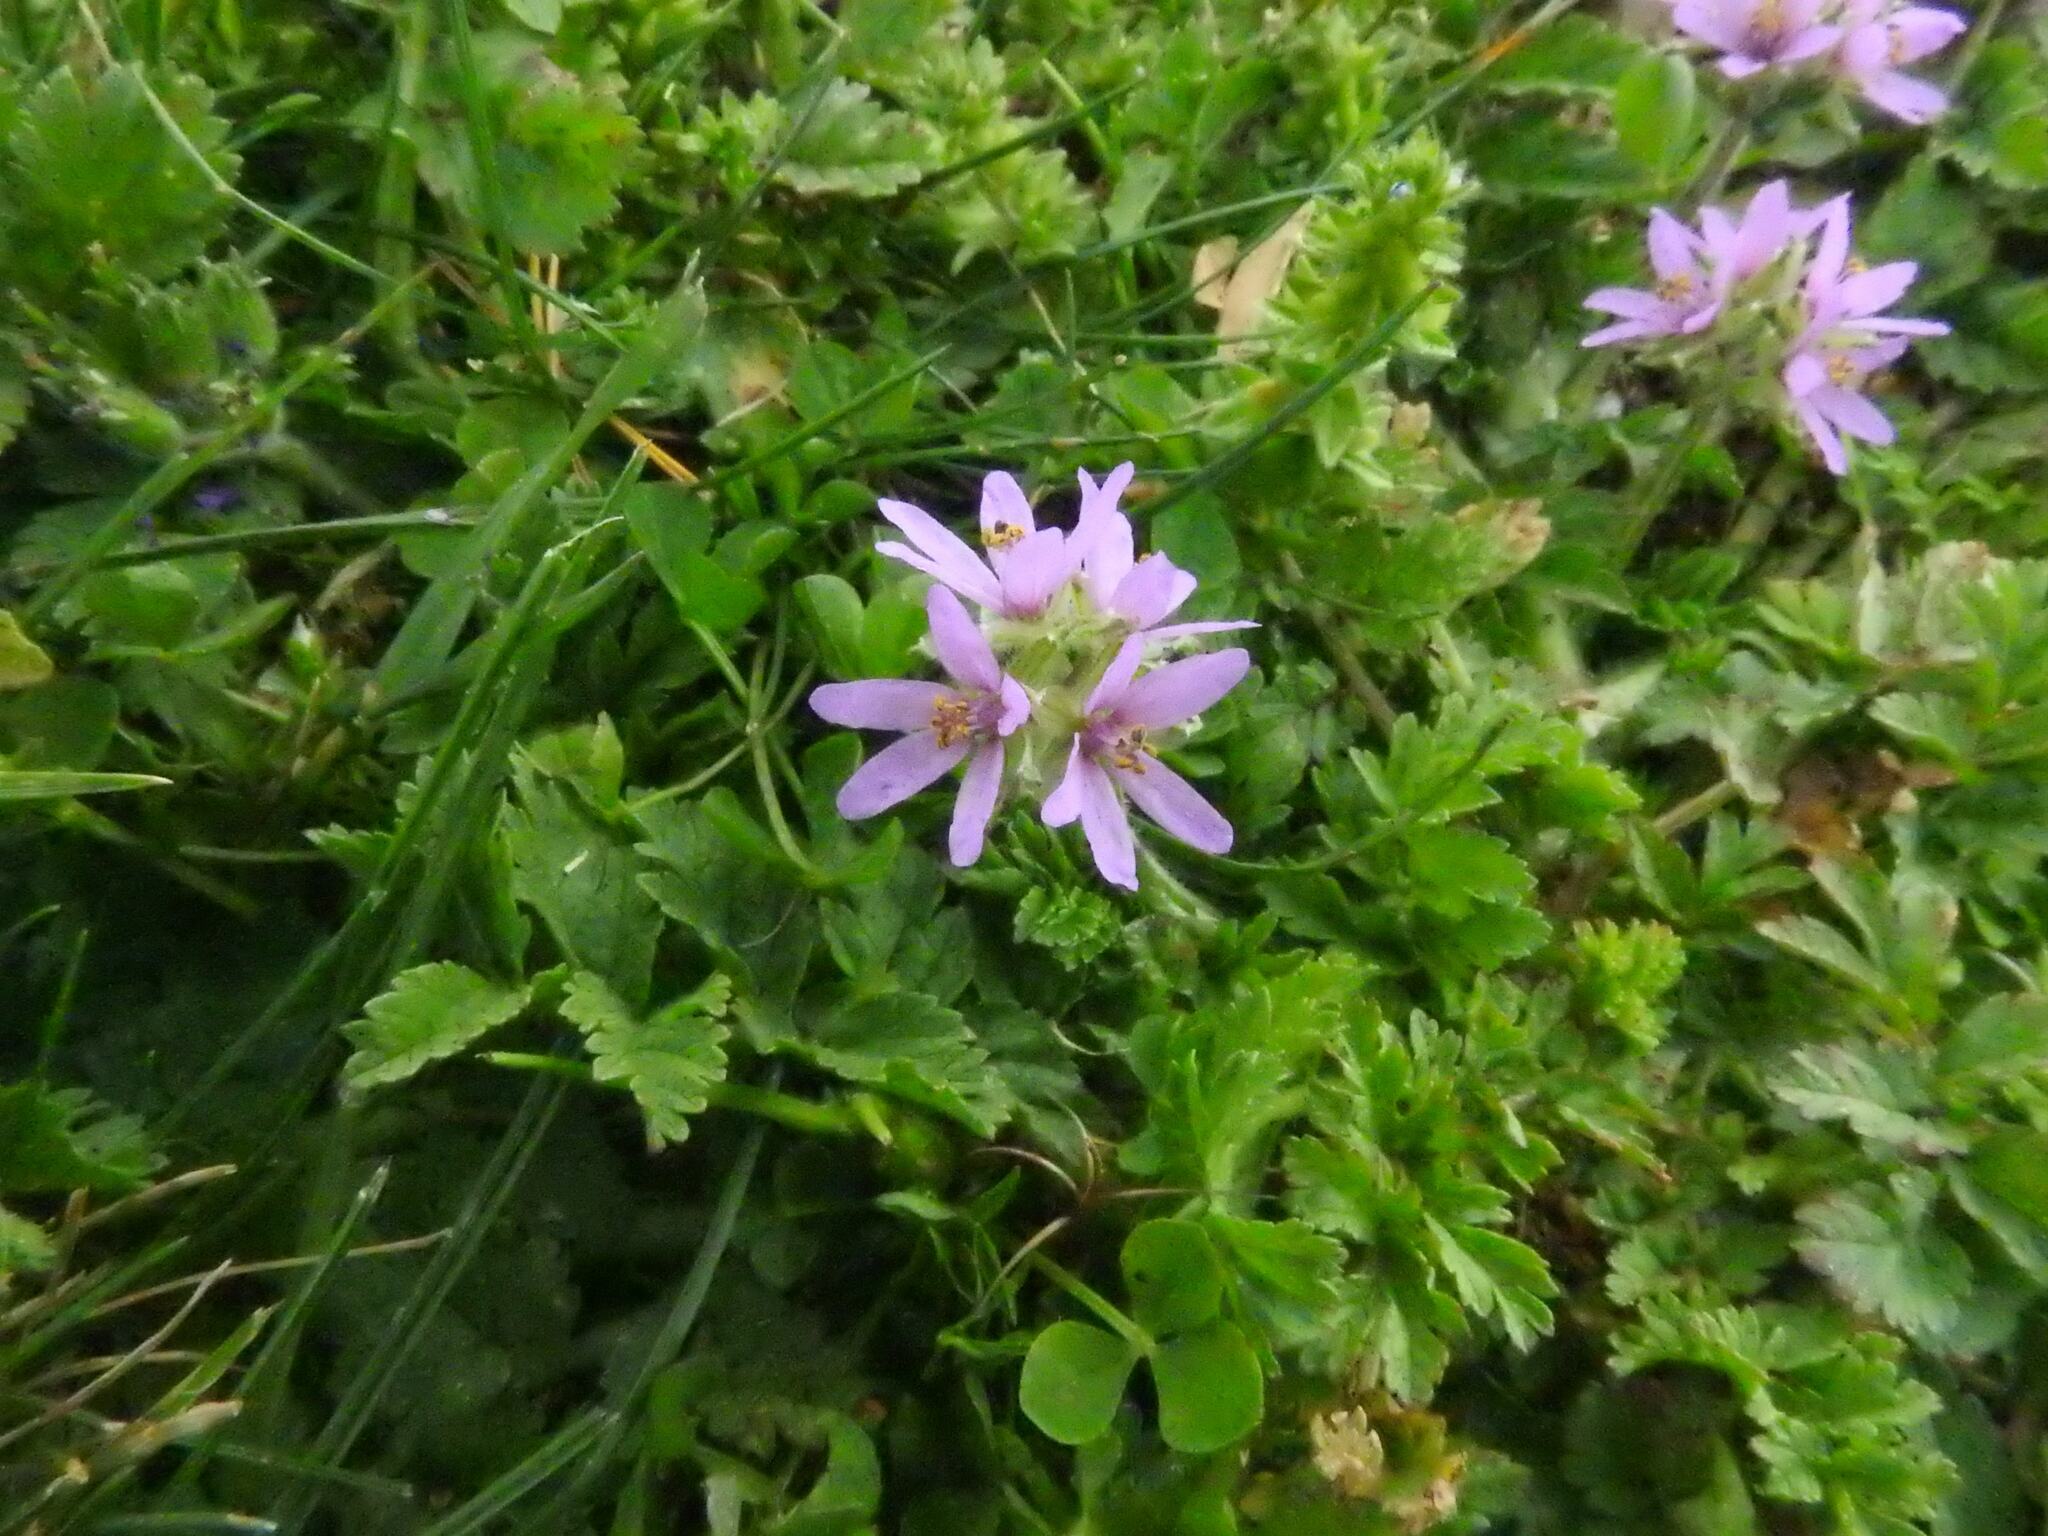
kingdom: Plantae
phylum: Tracheophyta
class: Magnoliopsida
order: Geraniales
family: Geraniaceae
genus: Erodium
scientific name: Erodium moschatum
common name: Musk stork's-bill
